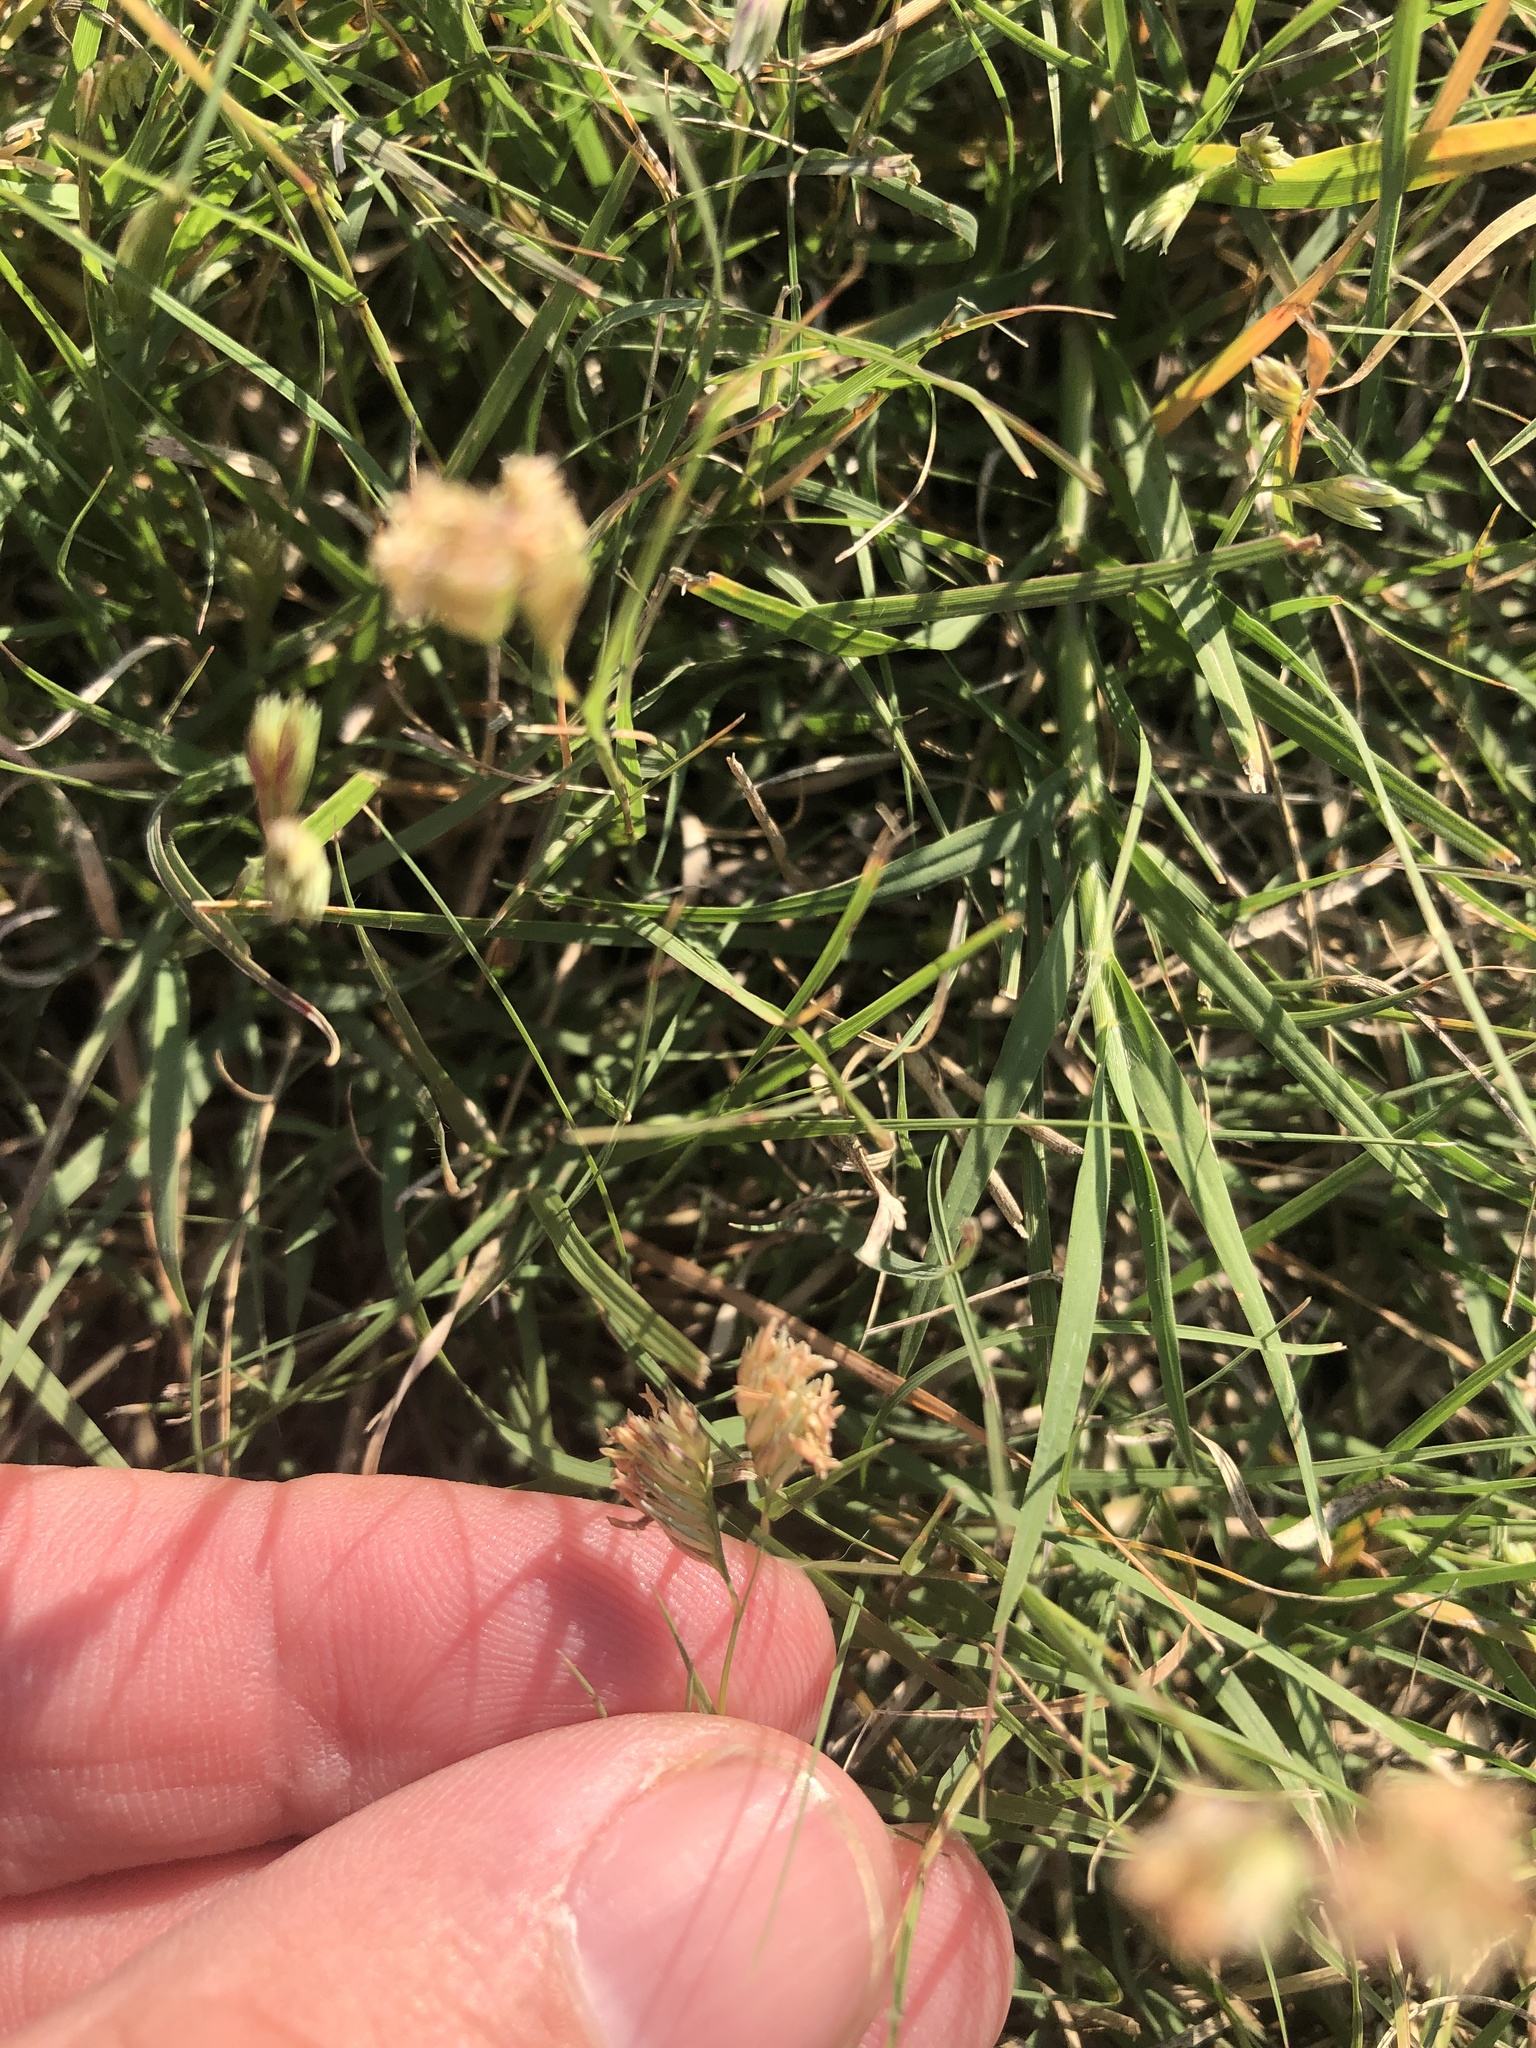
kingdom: Plantae
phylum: Tracheophyta
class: Liliopsida
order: Poales
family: Poaceae
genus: Bouteloua
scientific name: Bouteloua dactyloides
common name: Buffalo grass
